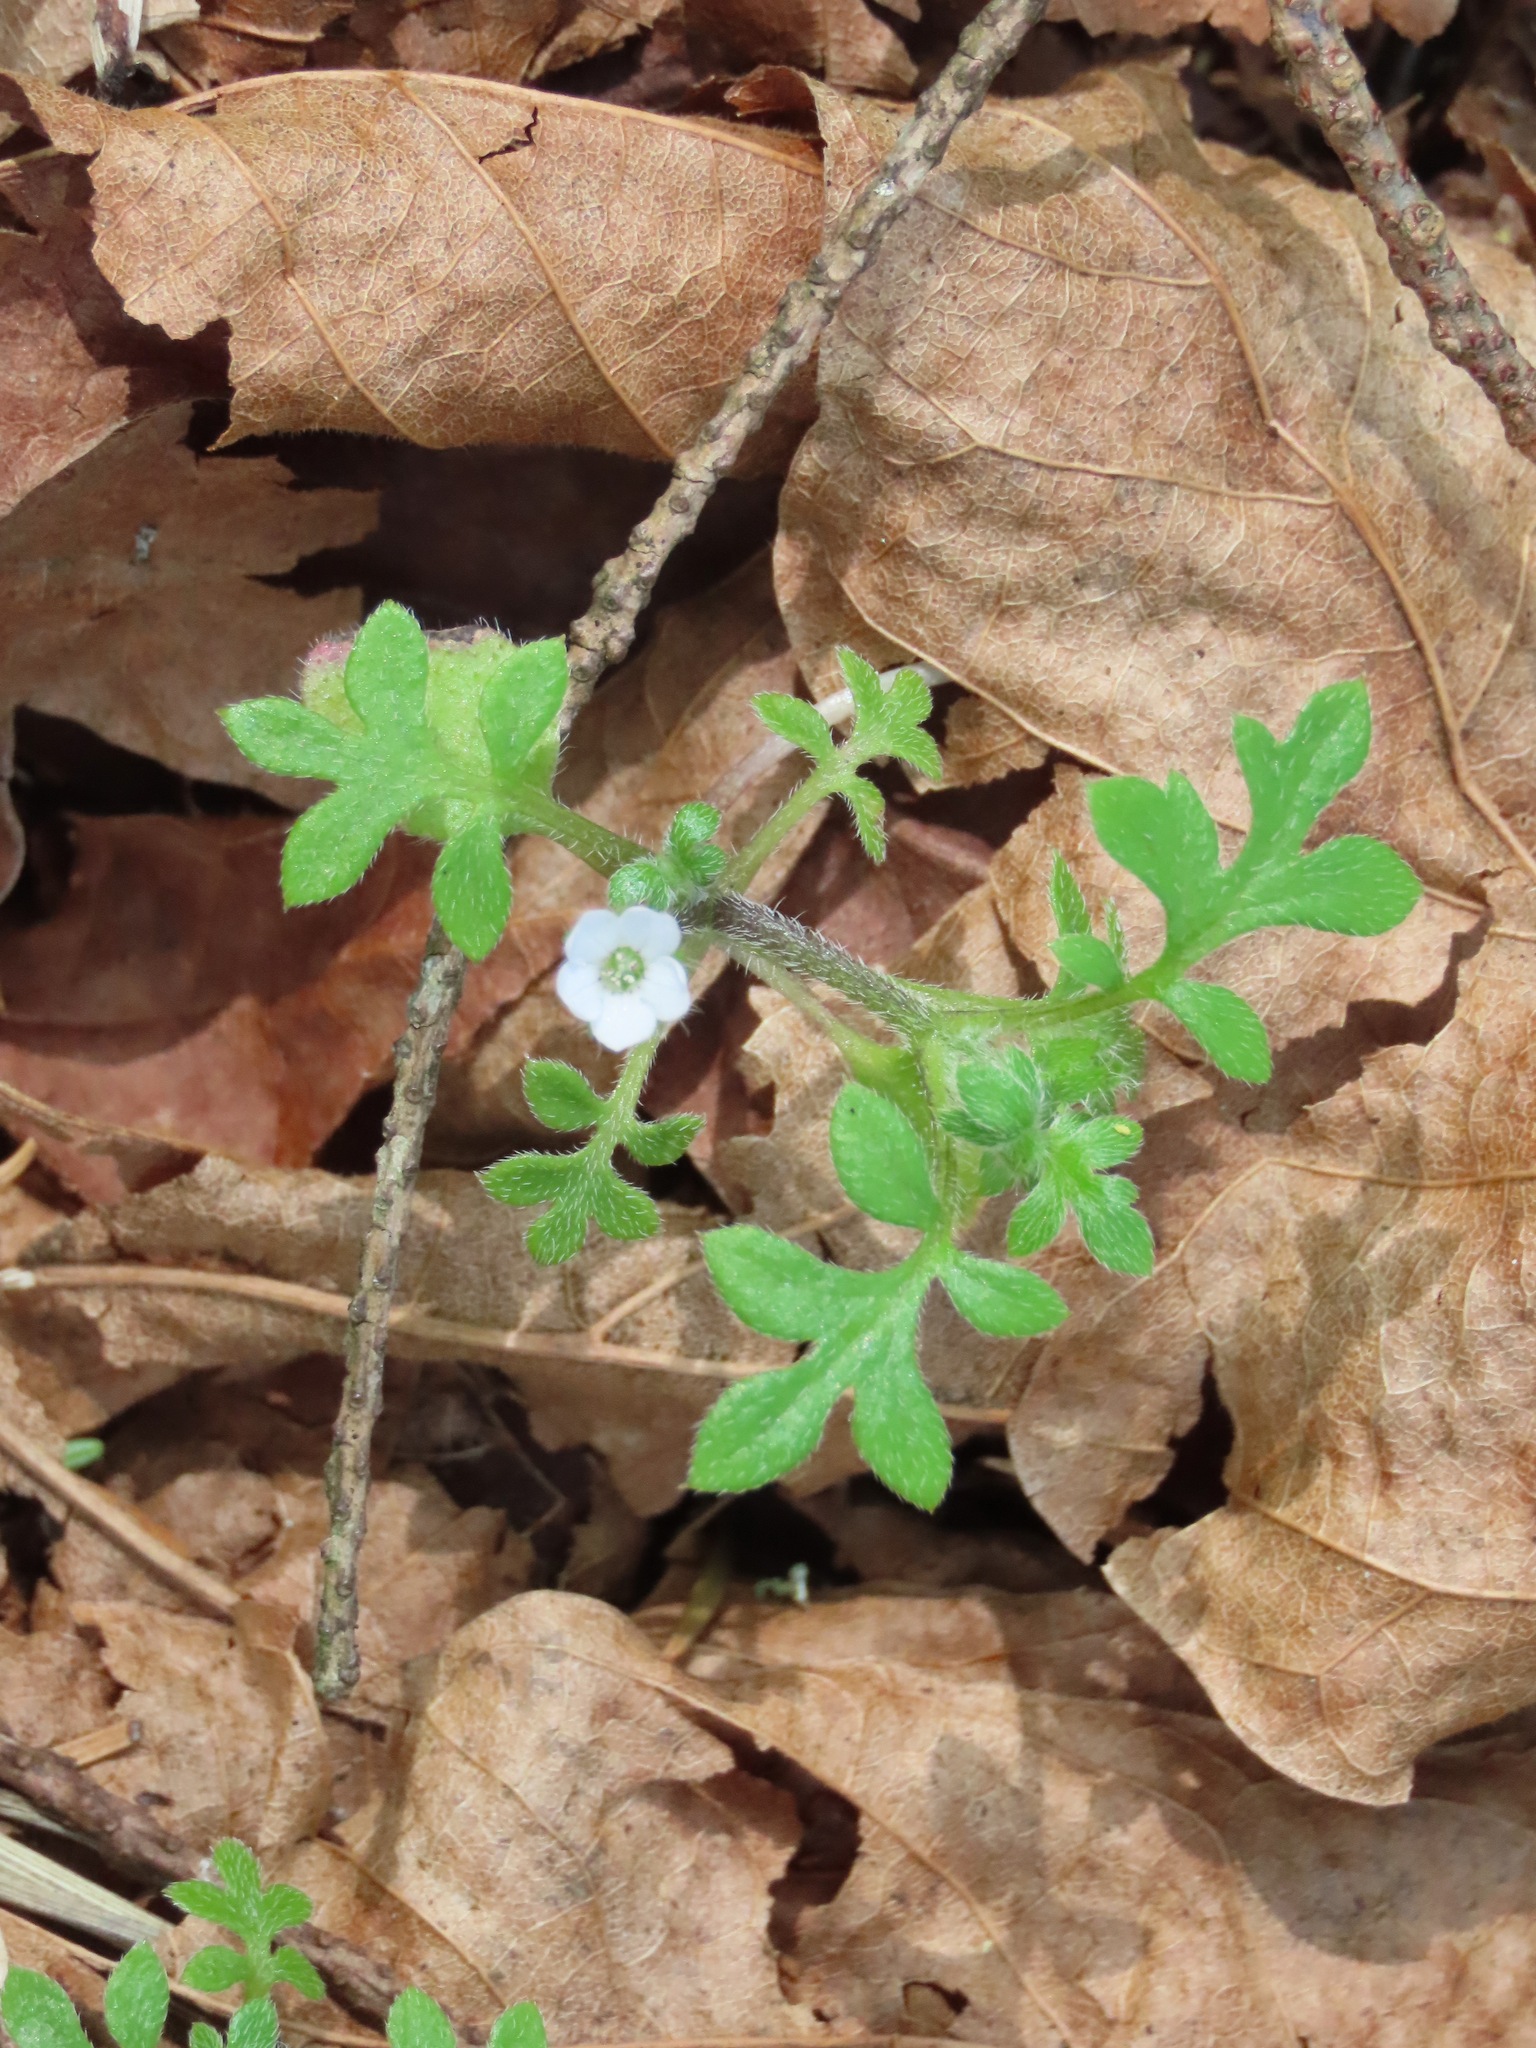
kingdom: Plantae
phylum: Tracheophyta
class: Magnoliopsida
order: Boraginales
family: Hydrophyllaceae
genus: Nemophila
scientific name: Nemophila parviflora
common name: Small-flowered baby-blue-eyes
